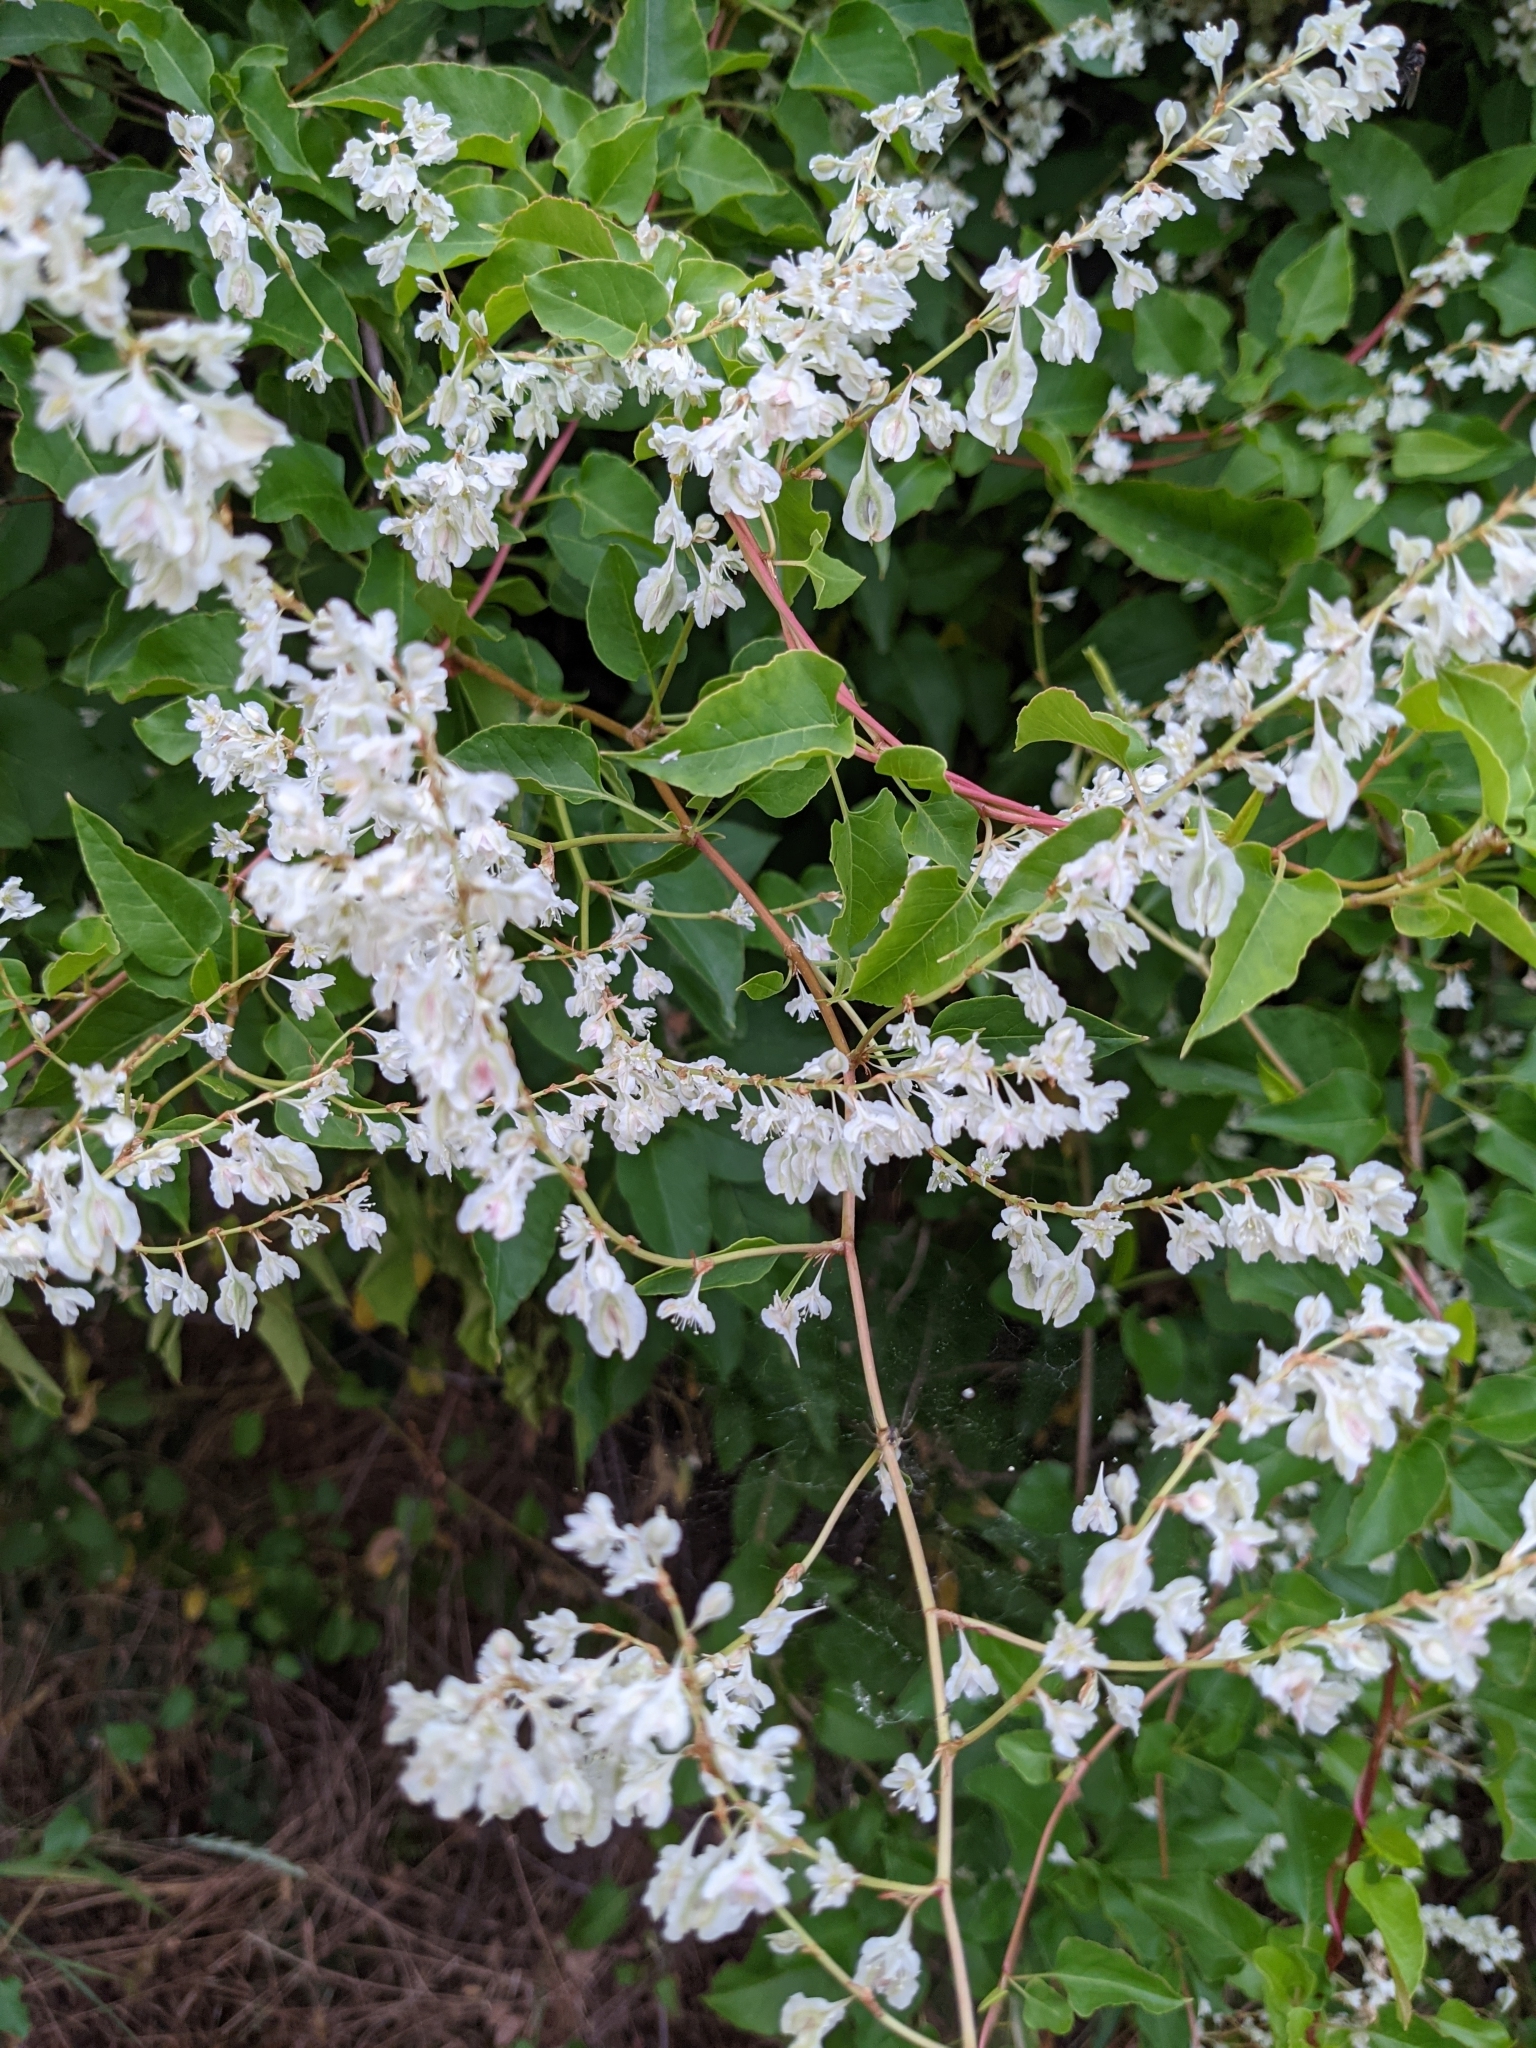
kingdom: Plantae
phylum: Tracheophyta
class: Magnoliopsida
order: Caryophyllales
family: Polygonaceae
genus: Fallopia
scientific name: Fallopia baldschuanica
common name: Russian-vine
